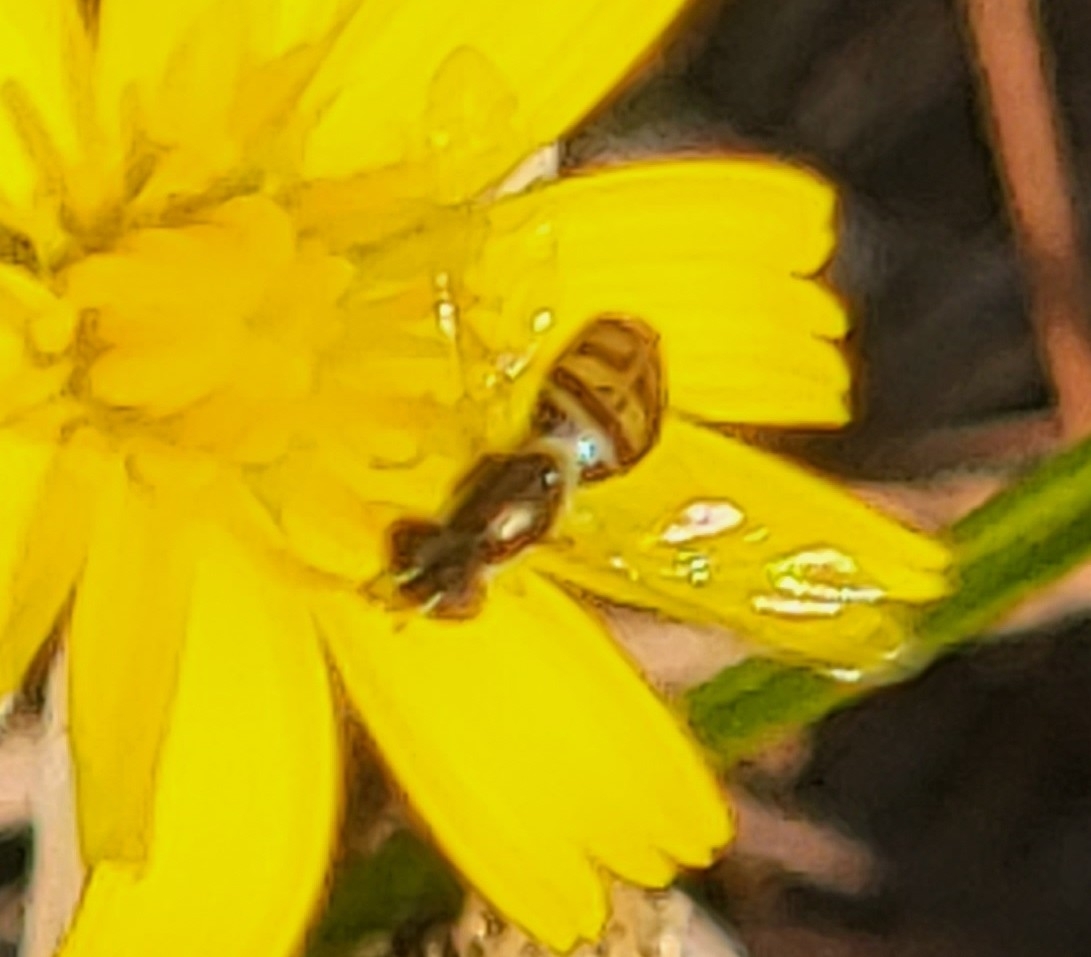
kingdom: Animalia
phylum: Arthropoda
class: Insecta
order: Diptera
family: Syrphidae
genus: Toxomerus
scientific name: Toxomerus marginatus
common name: Syrphid fly
